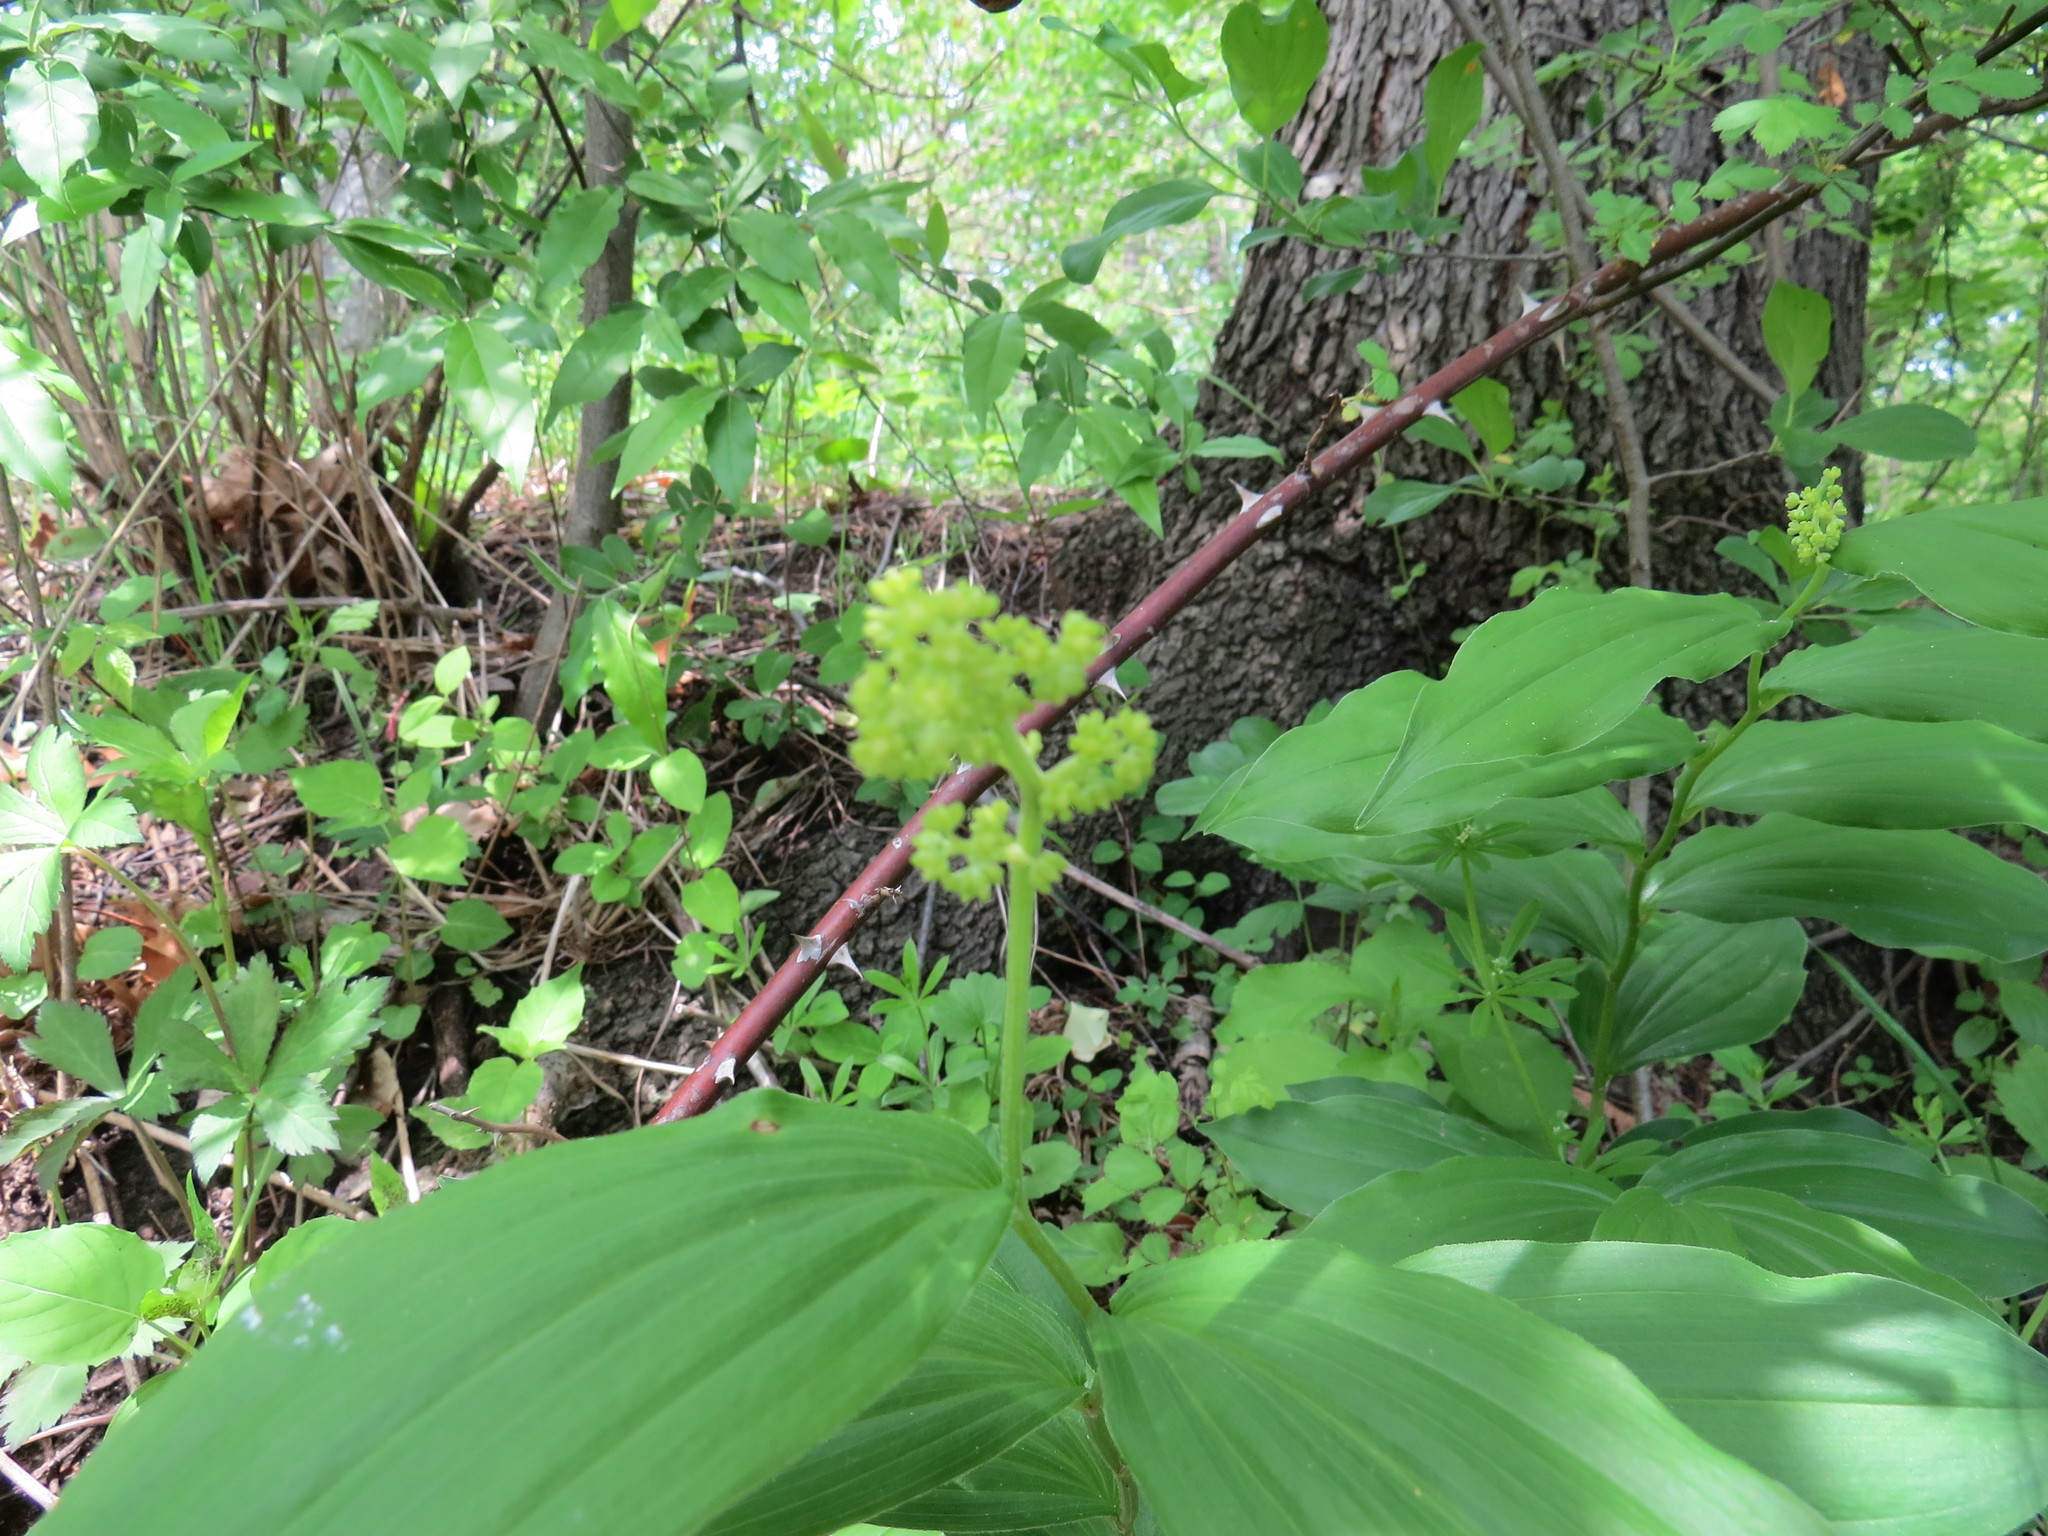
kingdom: Plantae
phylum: Tracheophyta
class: Liliopsida
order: Asparagales
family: Asparagaceae
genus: Maianthemum
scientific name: Maianthemum racemosum
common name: False spikenard
